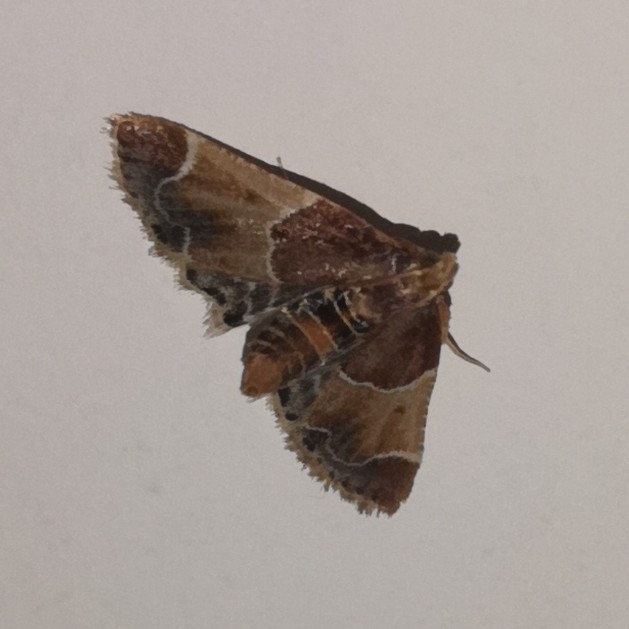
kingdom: Animalia
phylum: Arthropoda
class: Insecta
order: Lepidoptera
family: Pyralidae
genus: Pyralis
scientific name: Pyralis farinalis
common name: Meal moth
